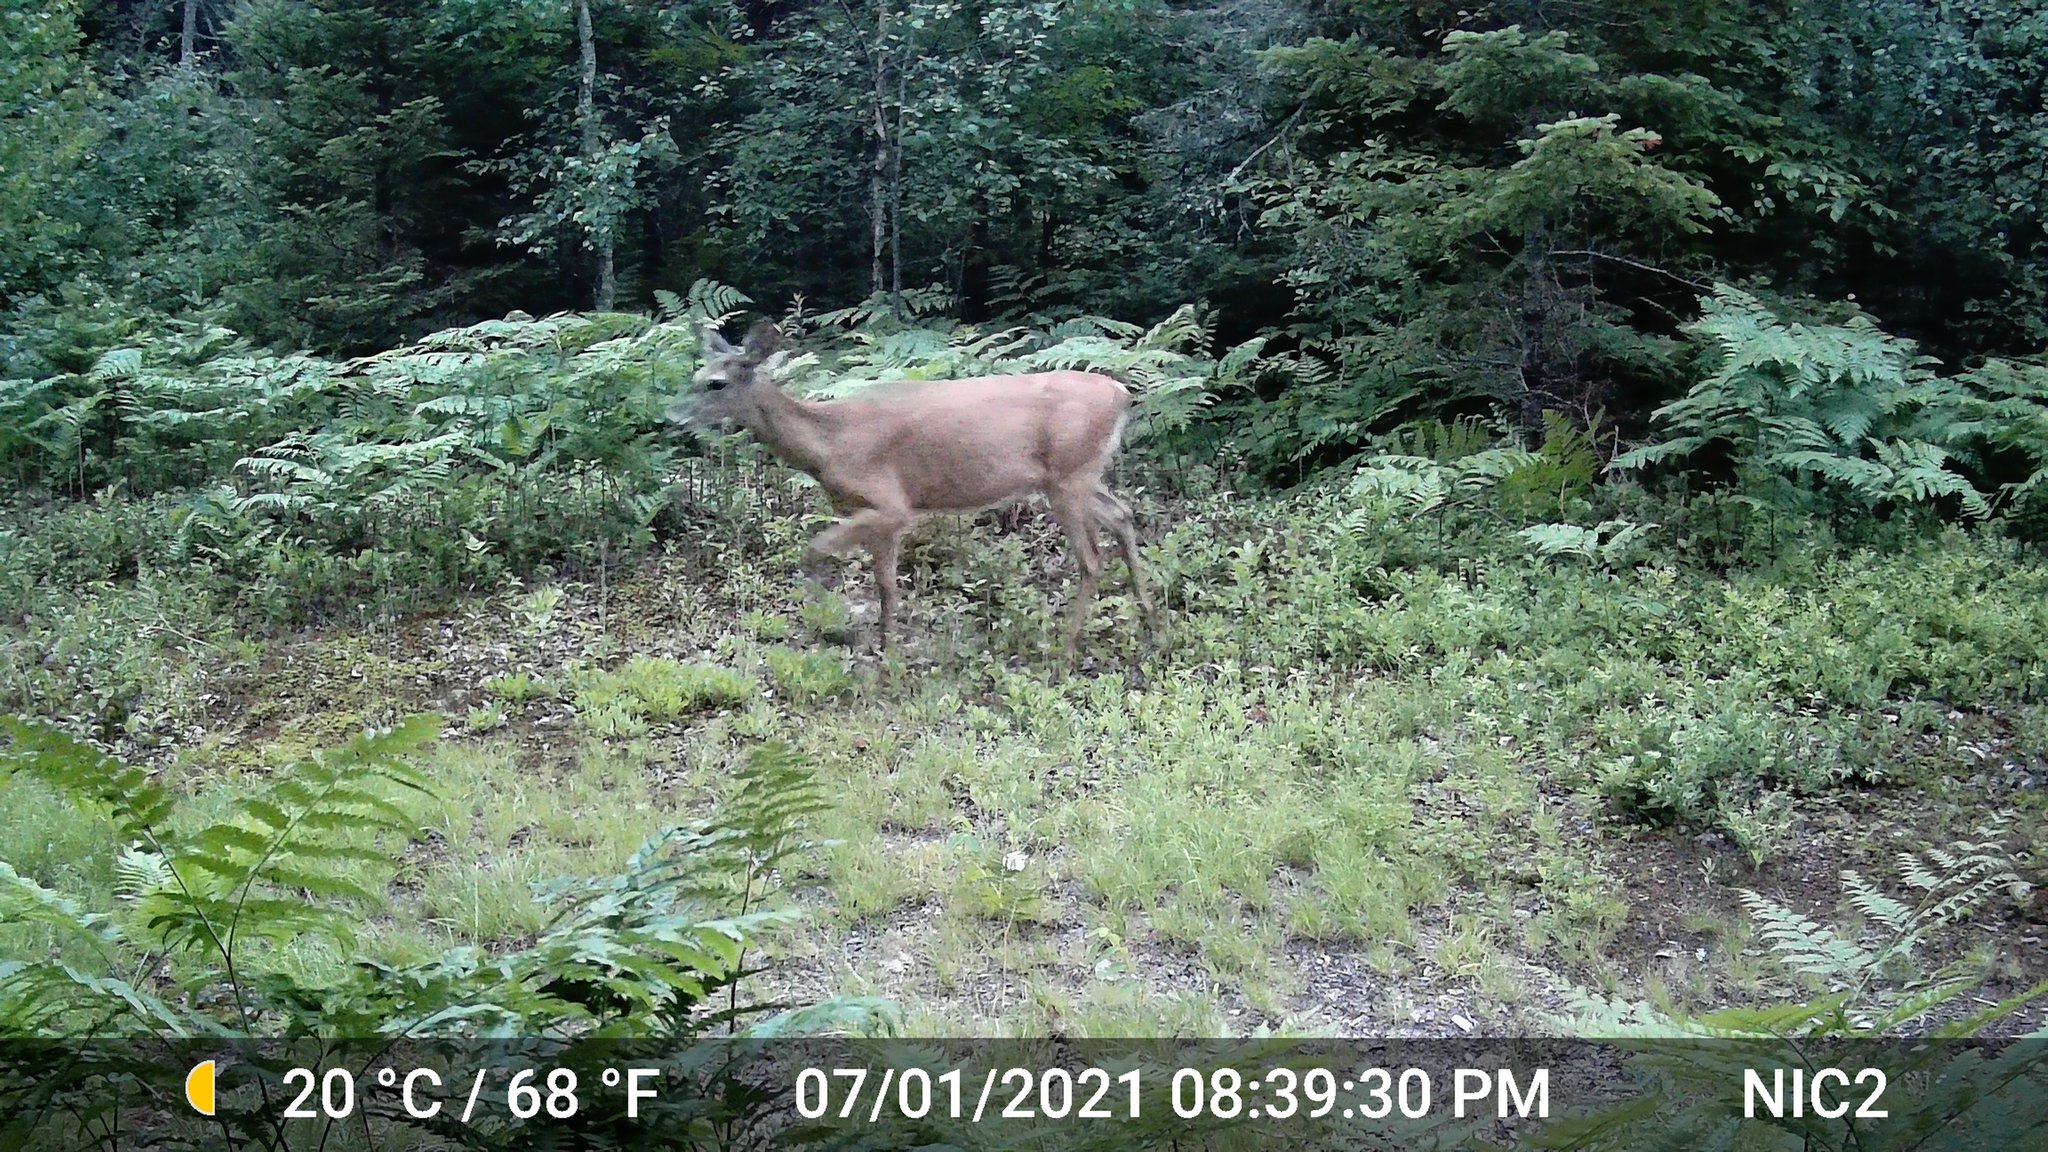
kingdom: Animalia
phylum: Chordata
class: Mammalia
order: Artiodactyla
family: Cervidae
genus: Odocoileus
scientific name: Odocoileus virginianus
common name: White-tailed deer
